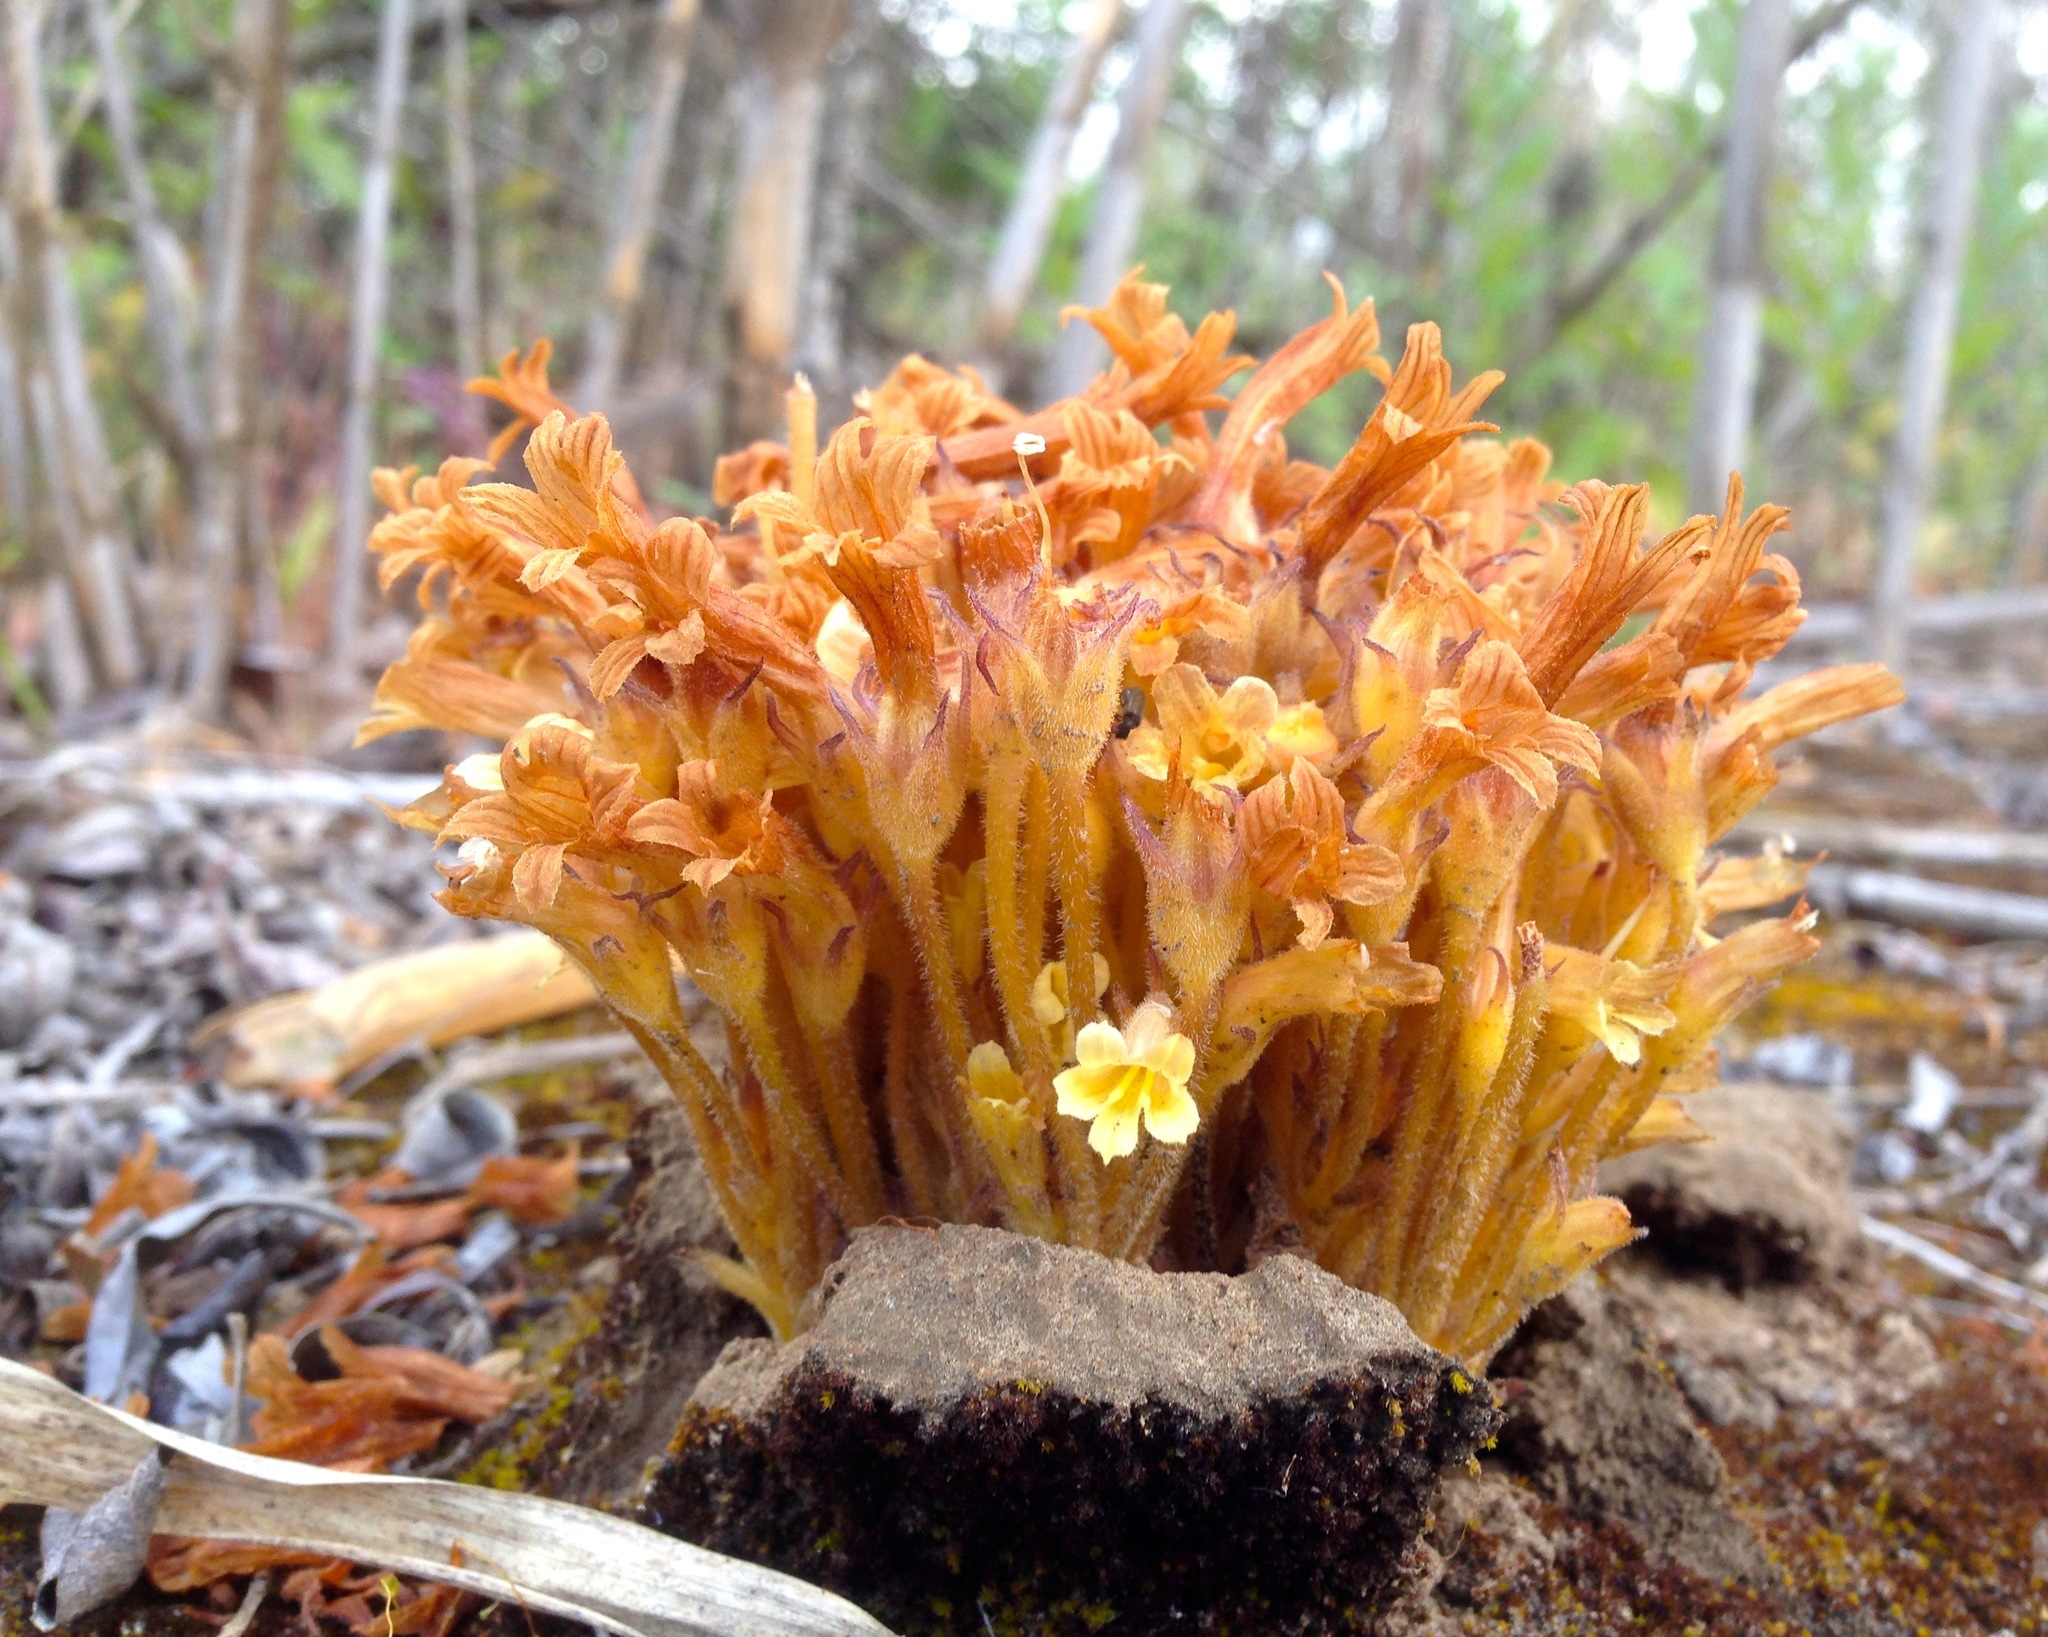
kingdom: Plantae
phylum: Tracheophyta
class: Magnoliopsida
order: Lamiales
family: Orobanchaceae
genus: Aphyllon
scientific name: Aphyllon franciscanum
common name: San francisco broomrape
